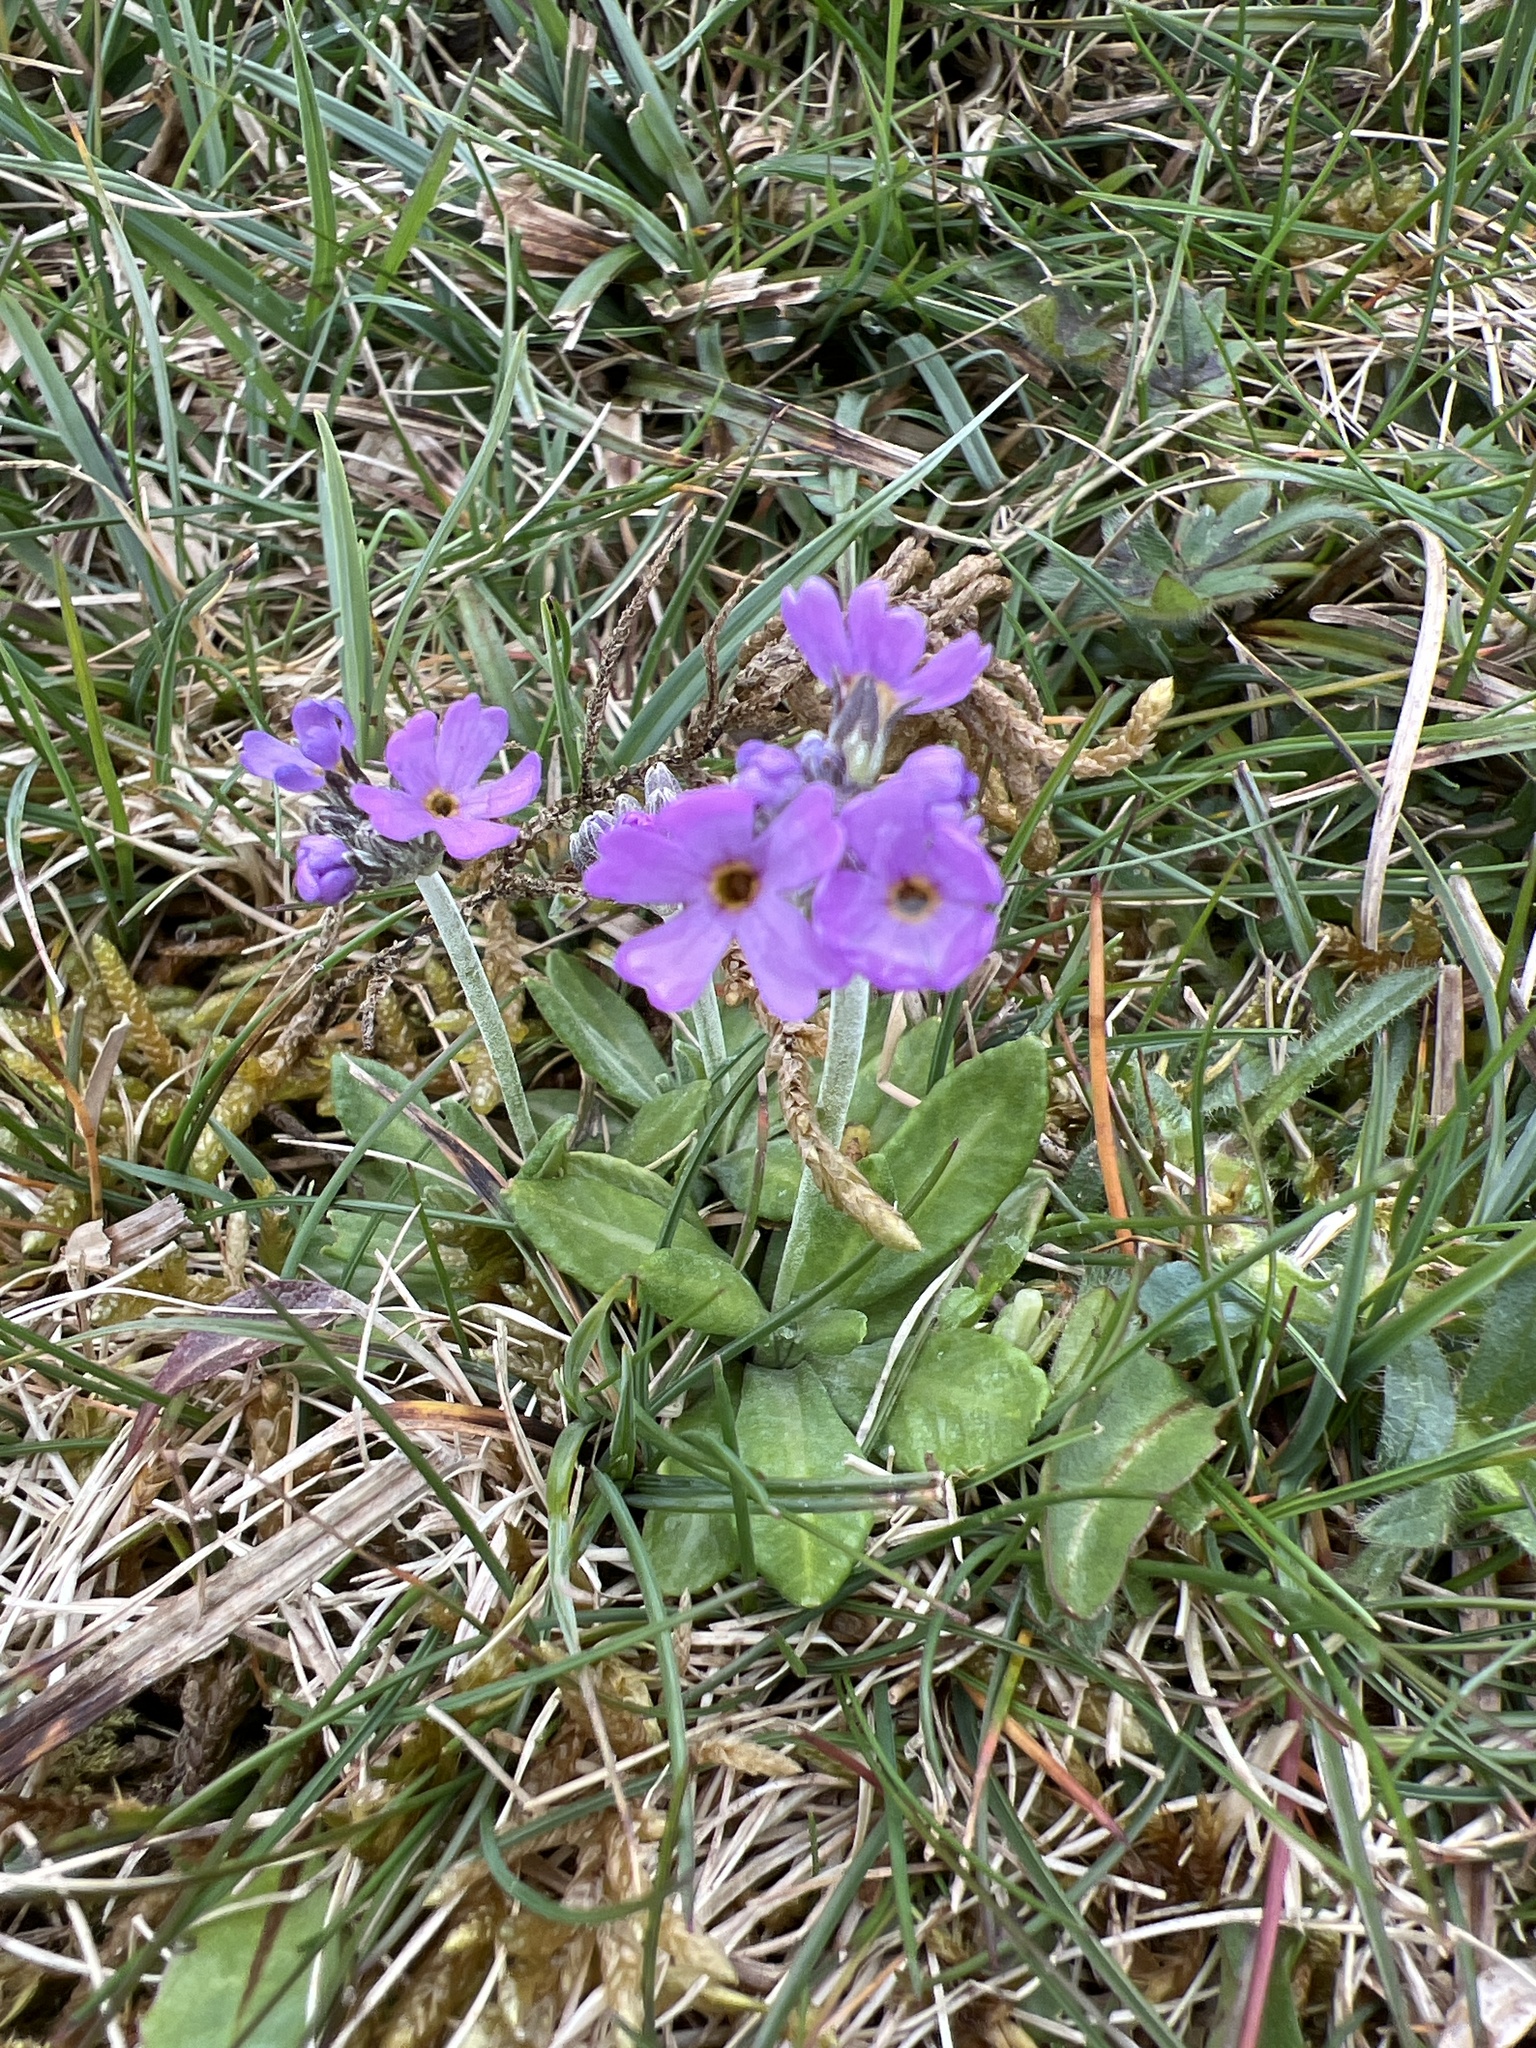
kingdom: Plantae
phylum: Tracheophyta
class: Magnoliopsida
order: Ericales
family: Primulaceae
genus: Primula
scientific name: Primula farinosa
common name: Bird's-eye primrose
